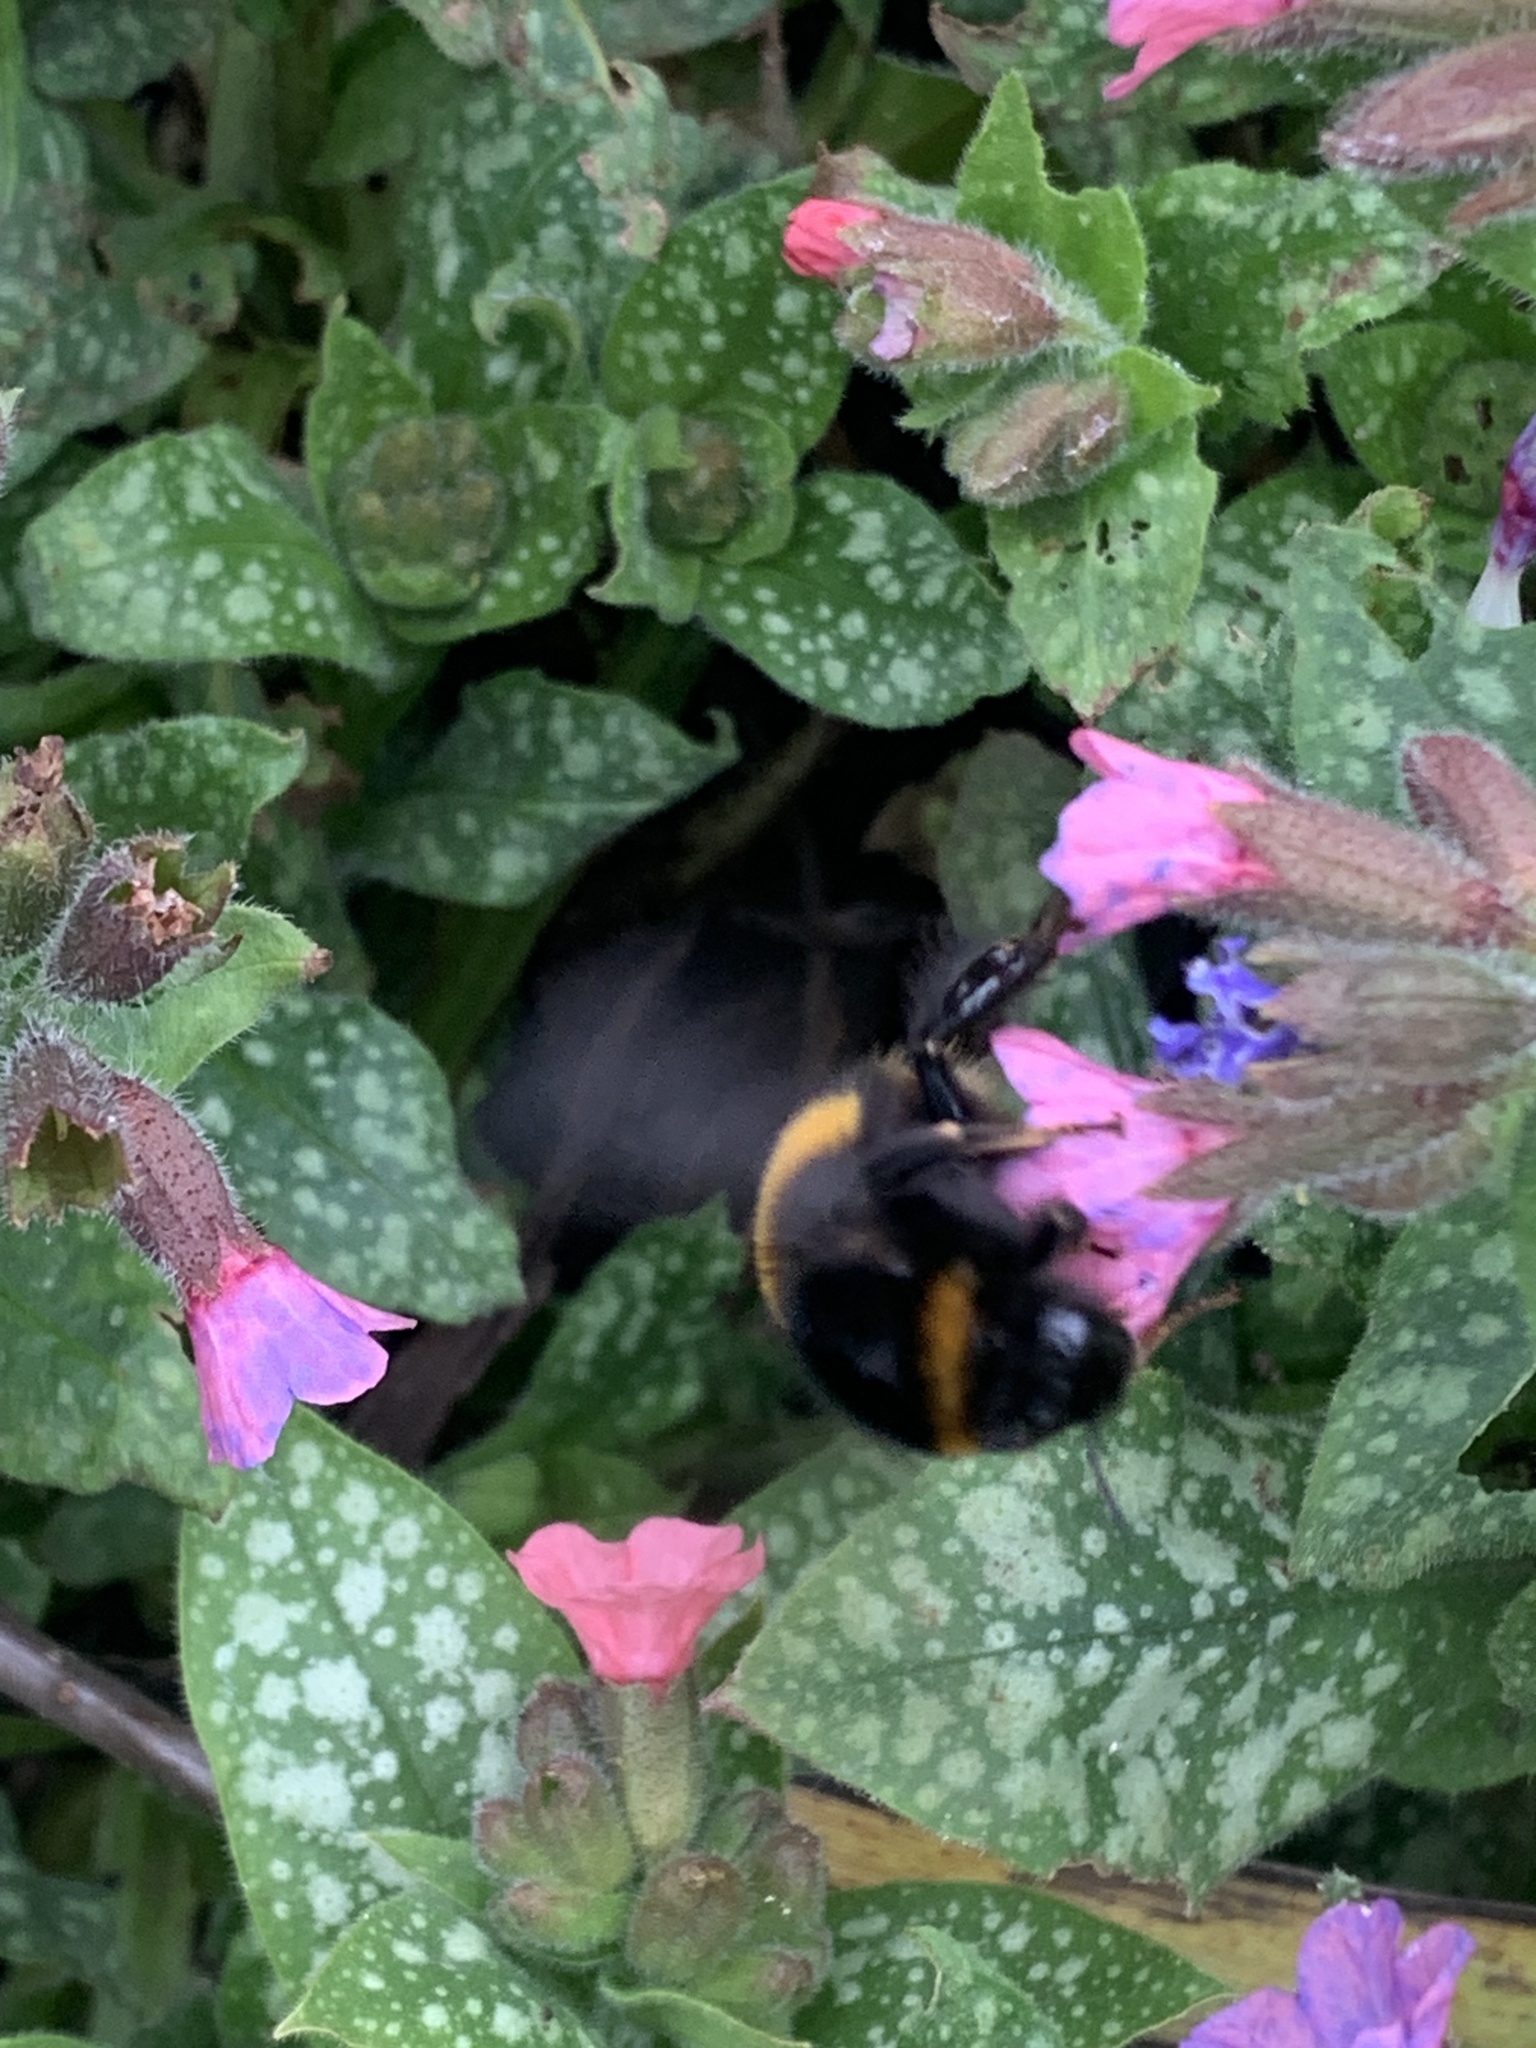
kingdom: Animalia
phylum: Arthropoda
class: Insecta
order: Hymenoptera
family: Apidae
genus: Bombus
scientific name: Bombus terrestris
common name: Buff-tailed bumblebee
